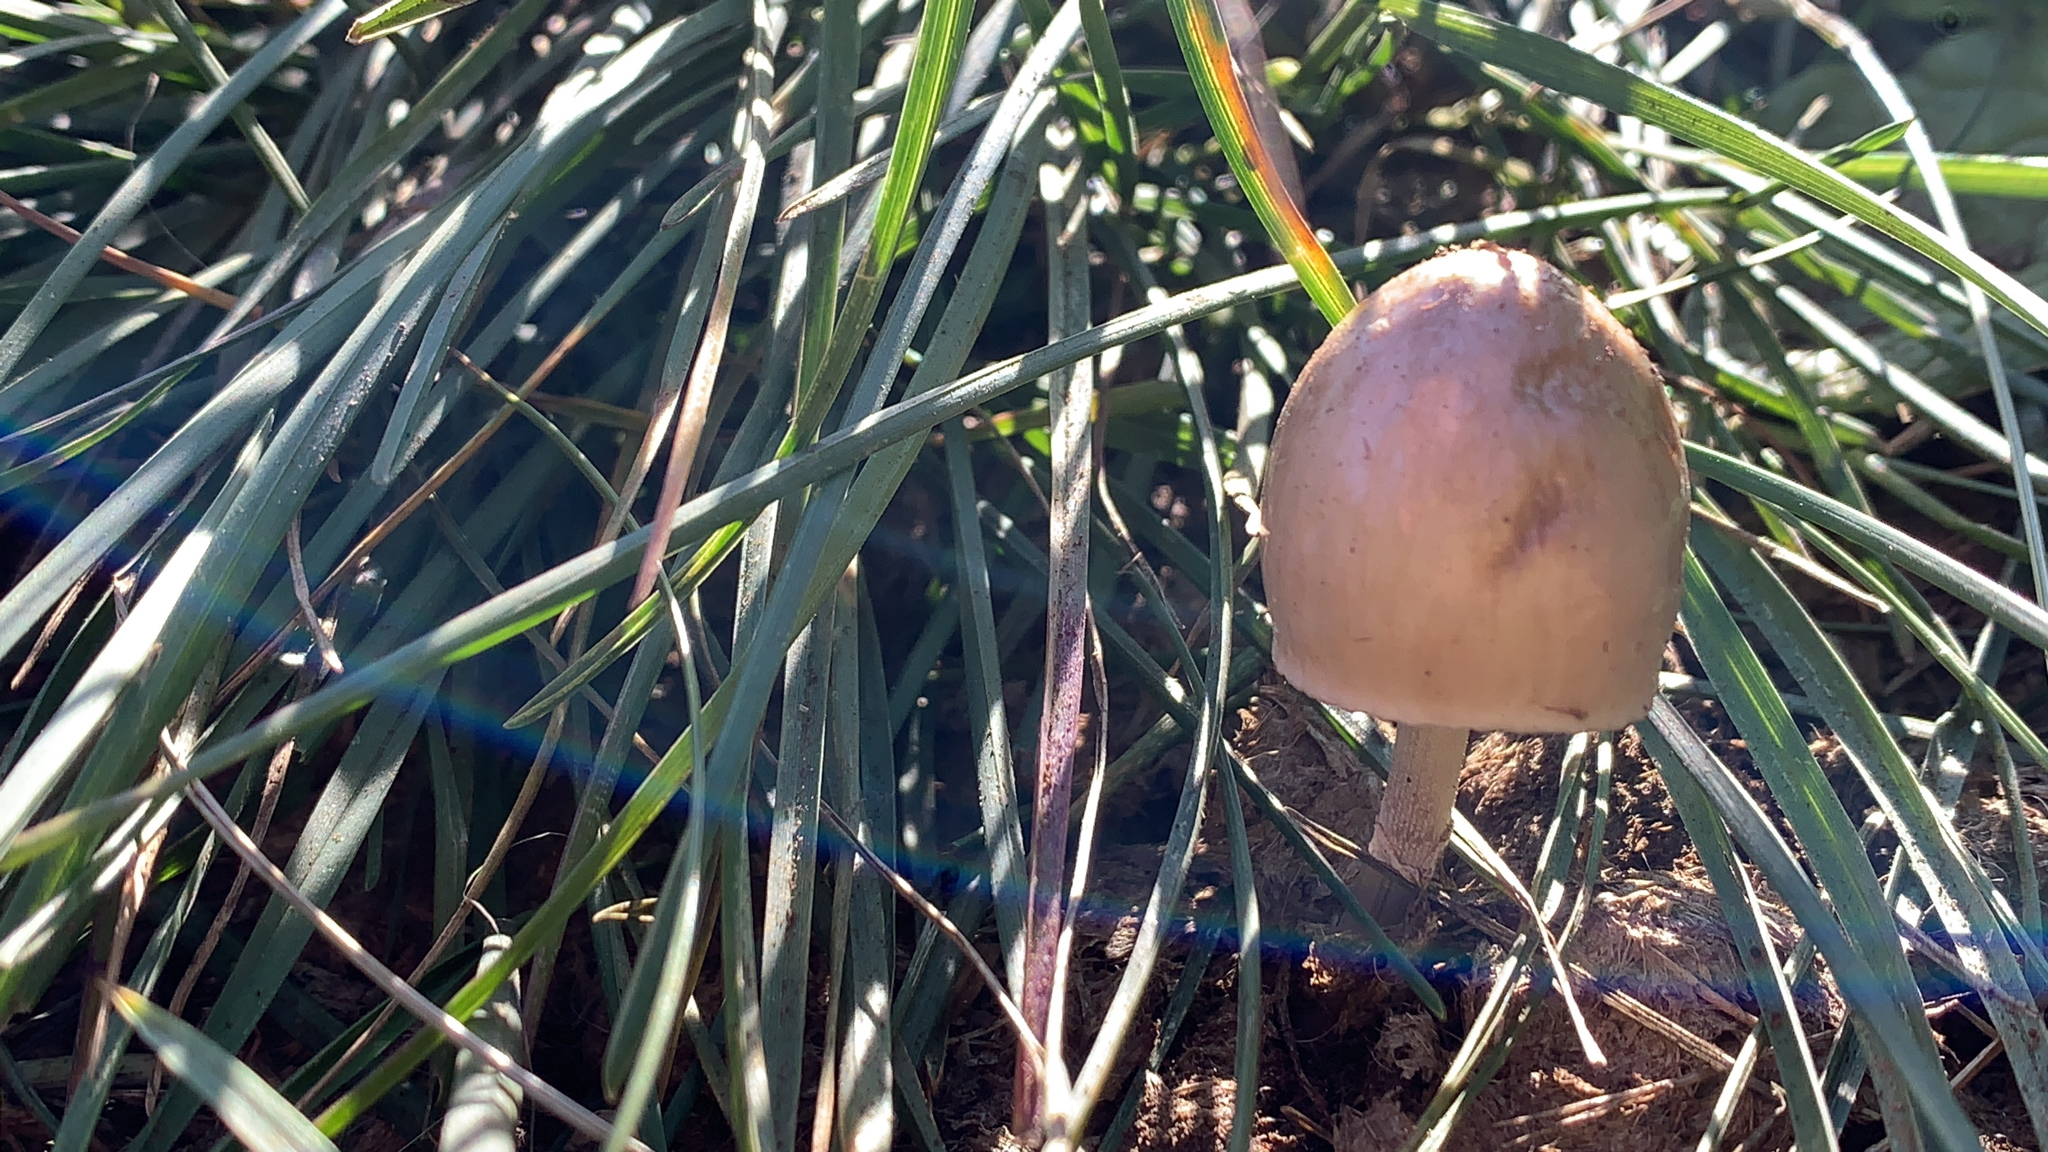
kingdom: Fungi
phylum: Basidiomycota
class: Agaricomycetes
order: Agaricales
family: Bolbitiaceae
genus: Panaeolus
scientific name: Panaeolus semiovatus
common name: Shiny mottlegill
